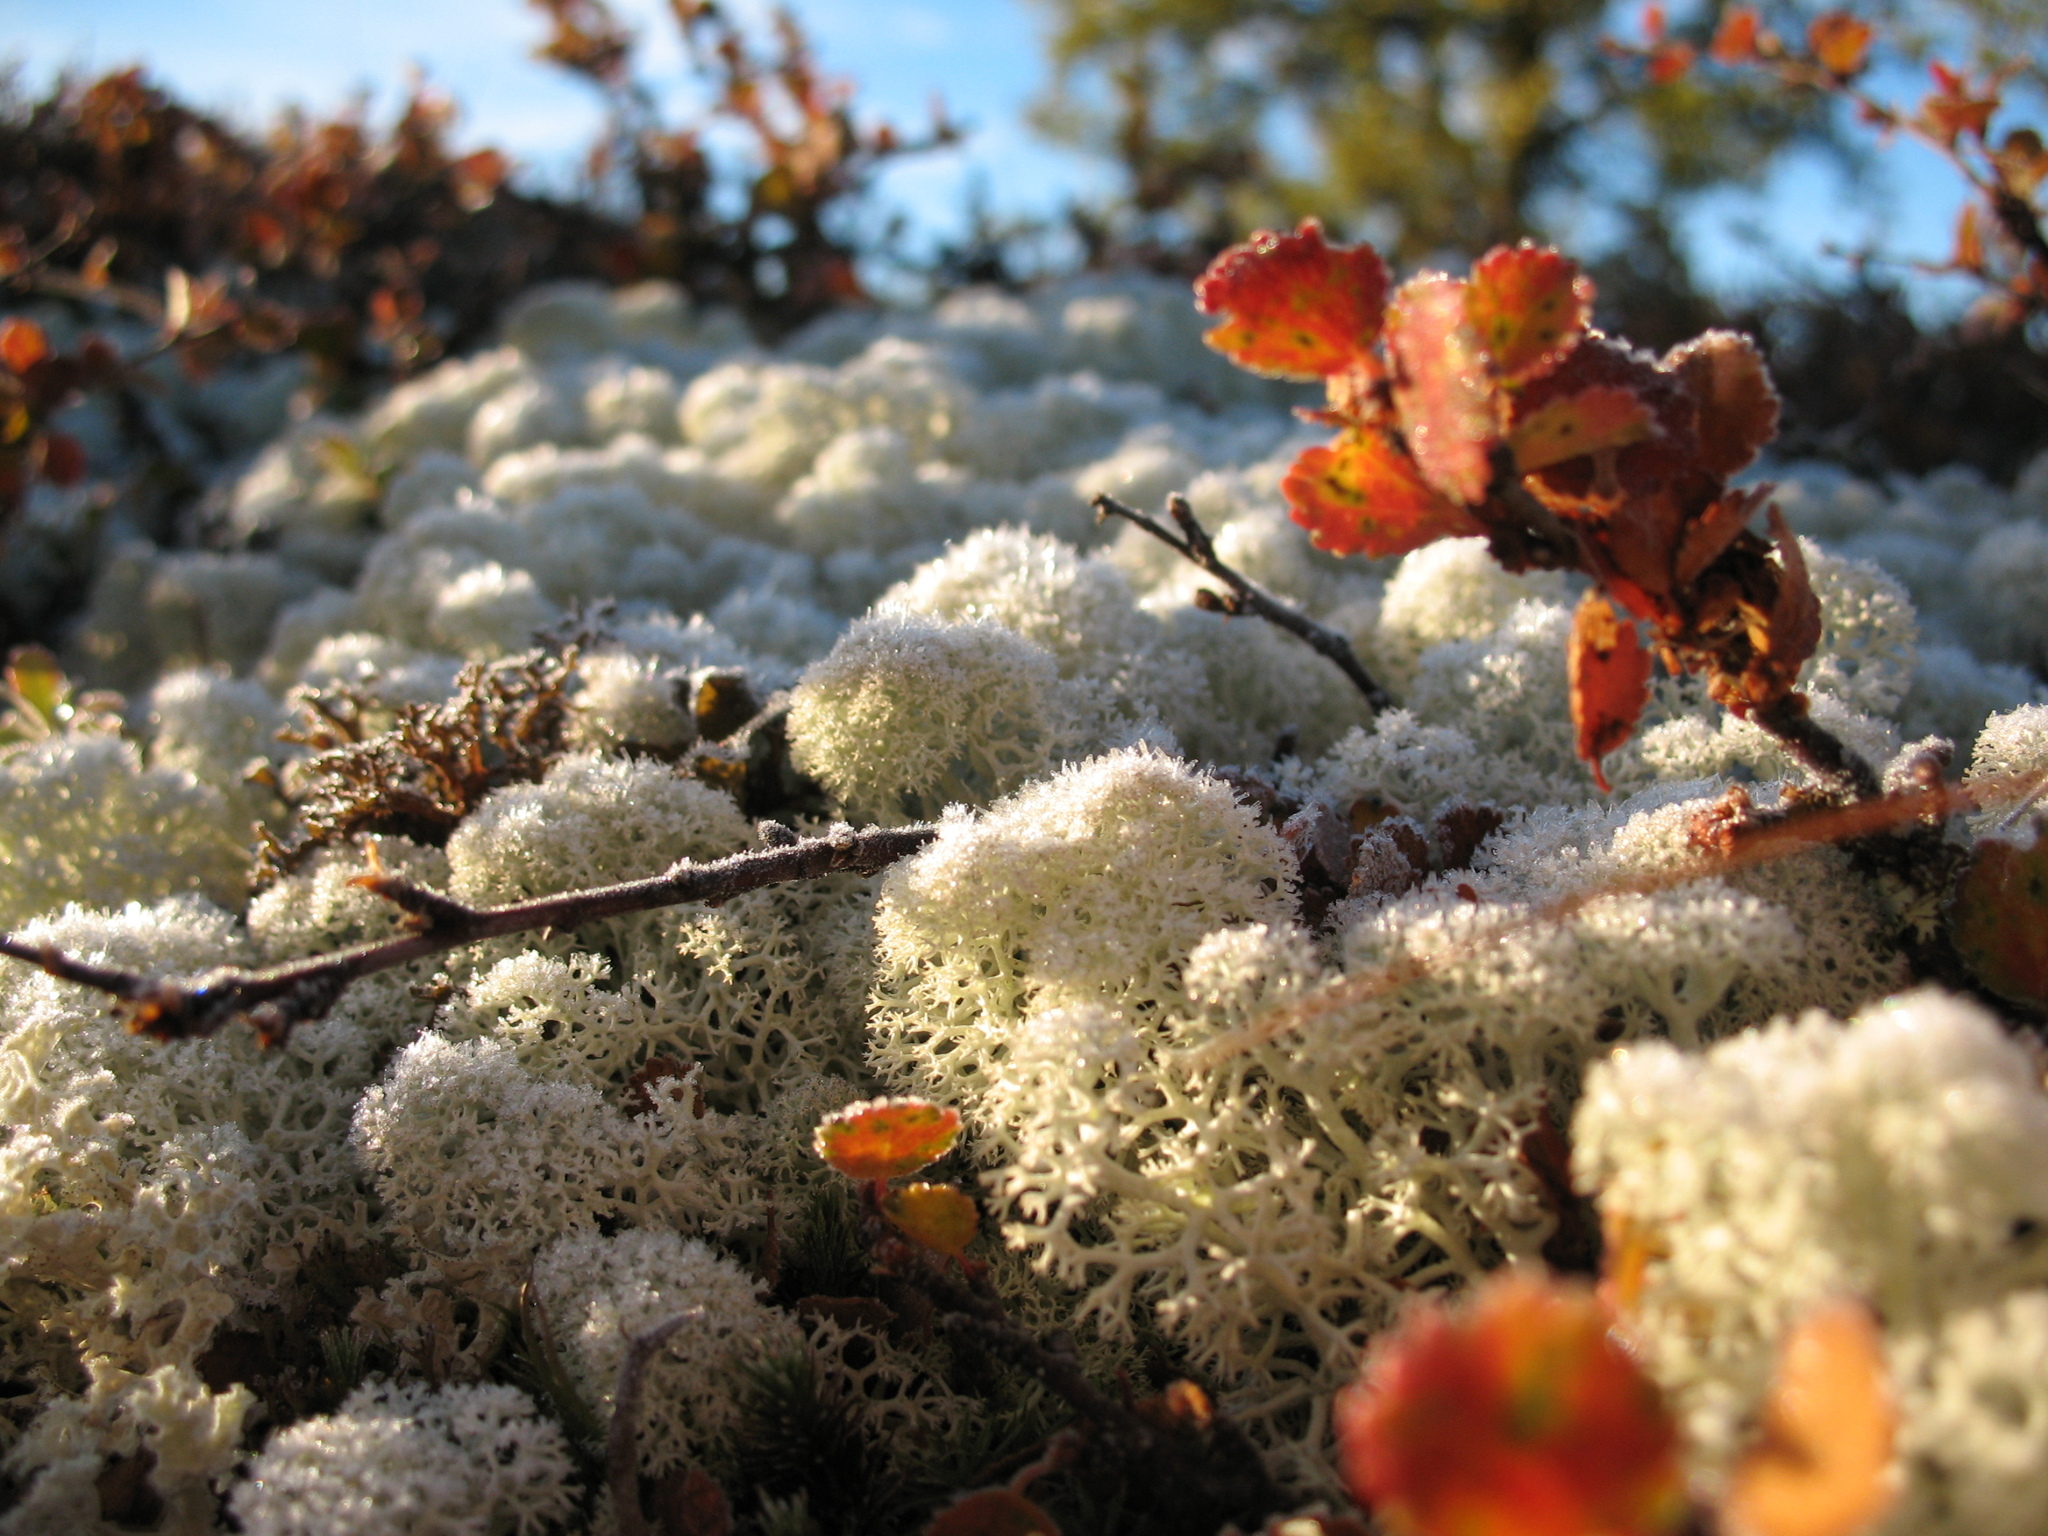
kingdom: Plantae
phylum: Tracheophyta
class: Magnoliopsida
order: Fagales
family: Betulaceae
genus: Betula
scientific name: Betula nana
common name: Arctic dwarf birch
